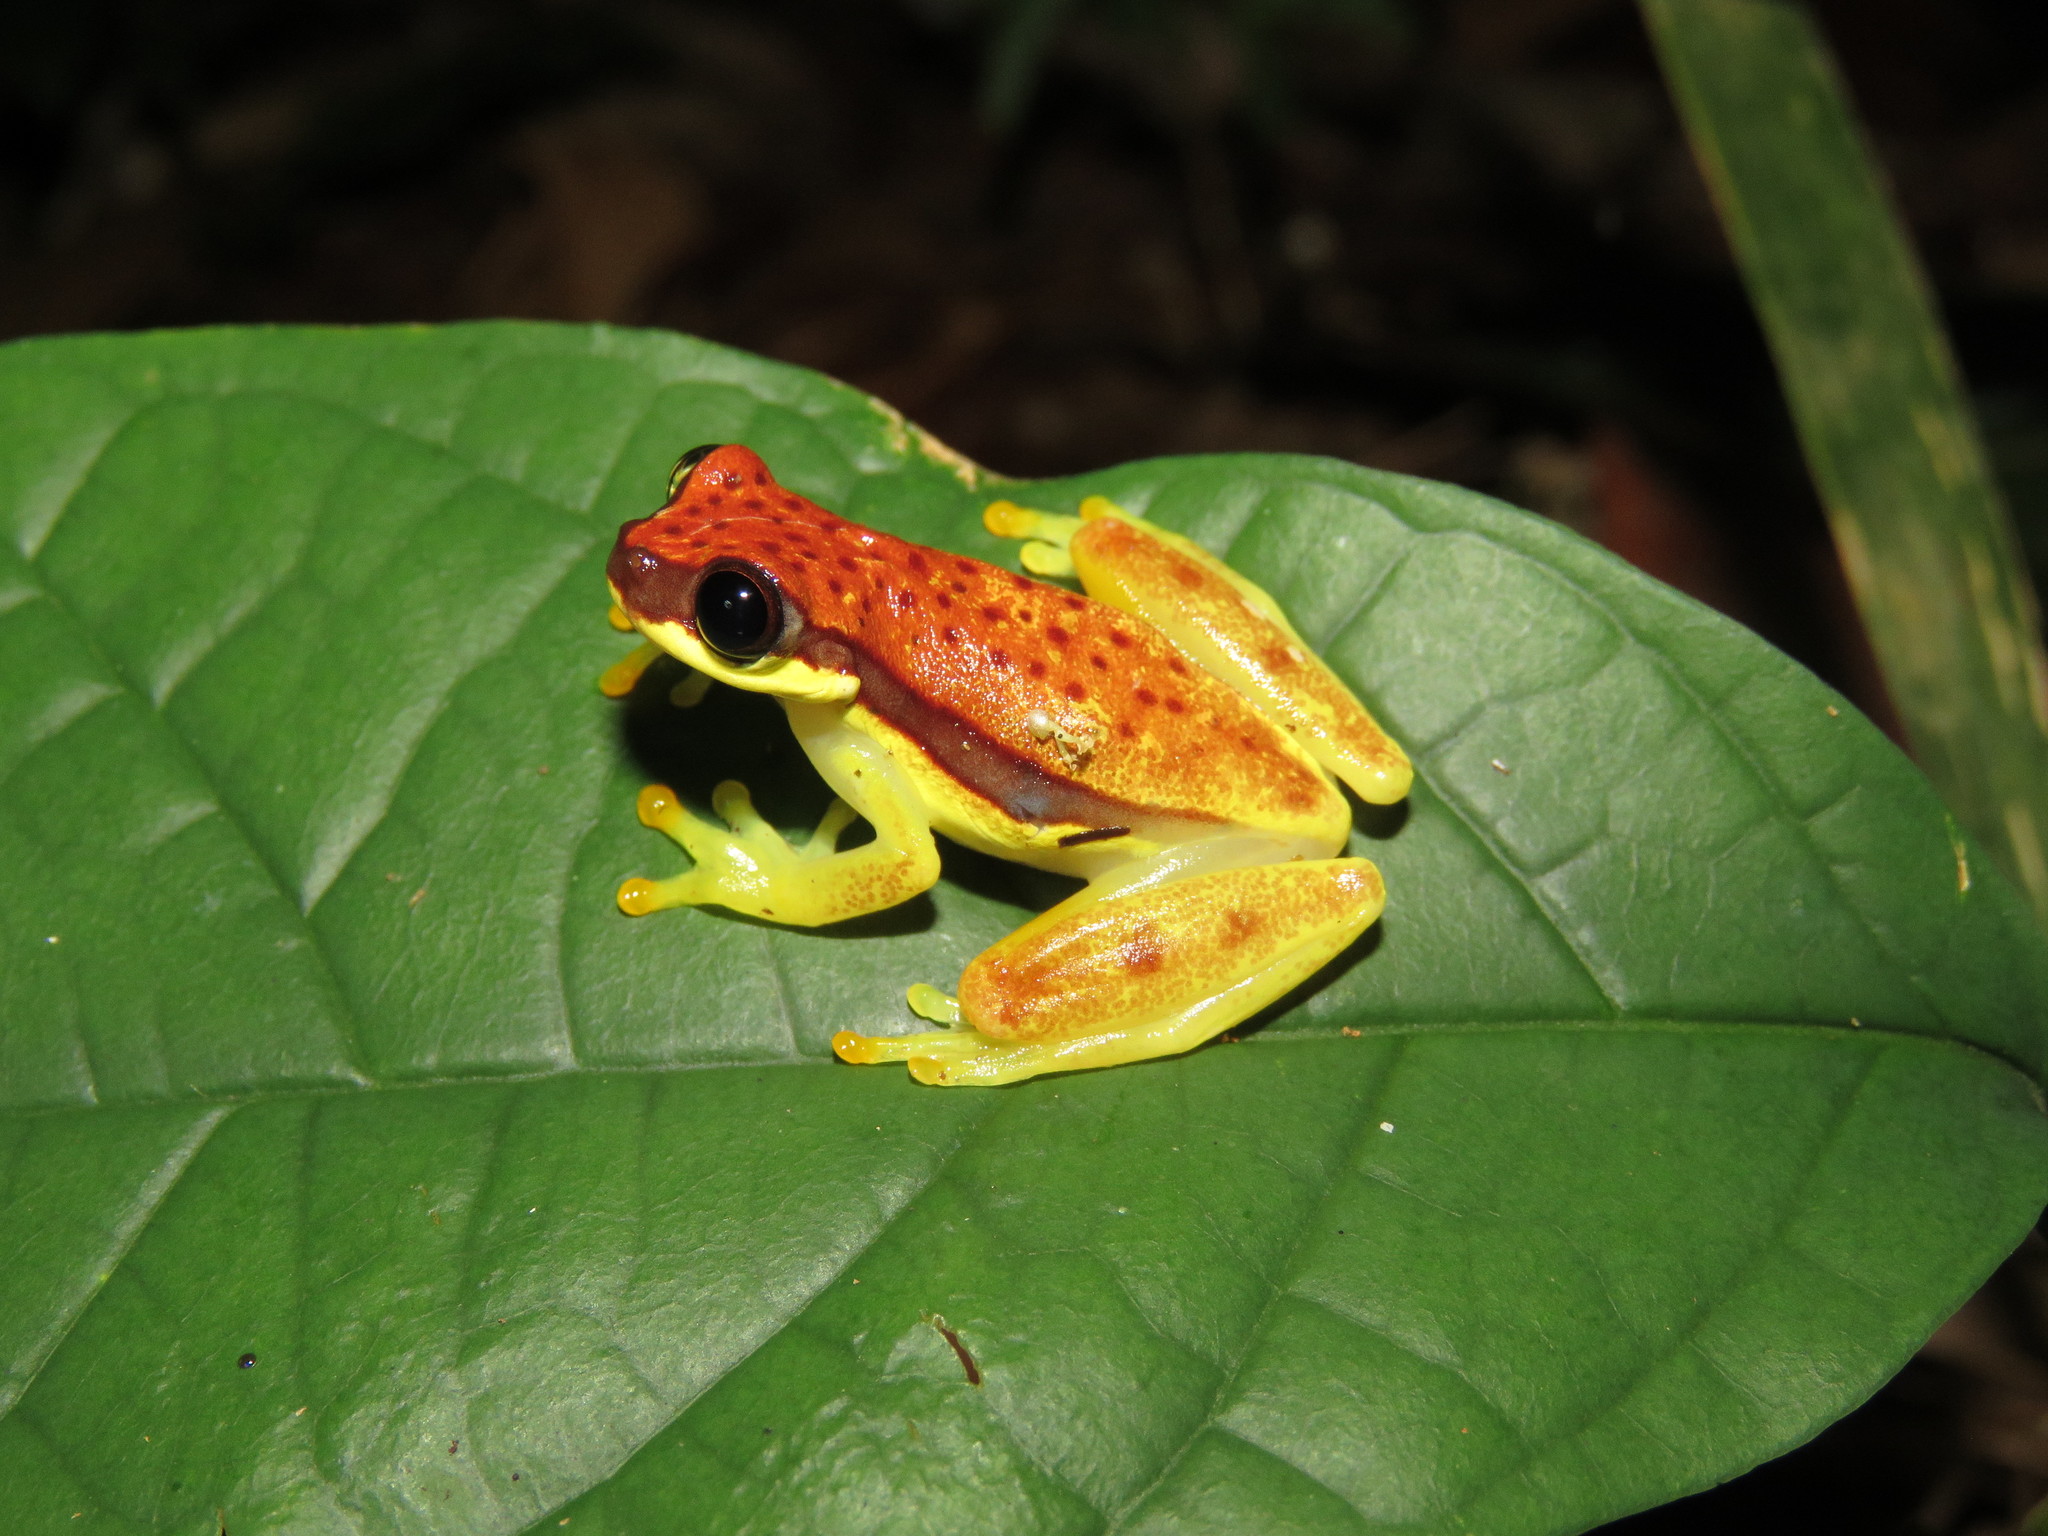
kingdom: Animalia
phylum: Chordata
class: Amphibia
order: Anura
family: Hylidae
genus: Dendropsophus
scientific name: Dendropsophus rhodopeplus
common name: Red-skirted treefrog
